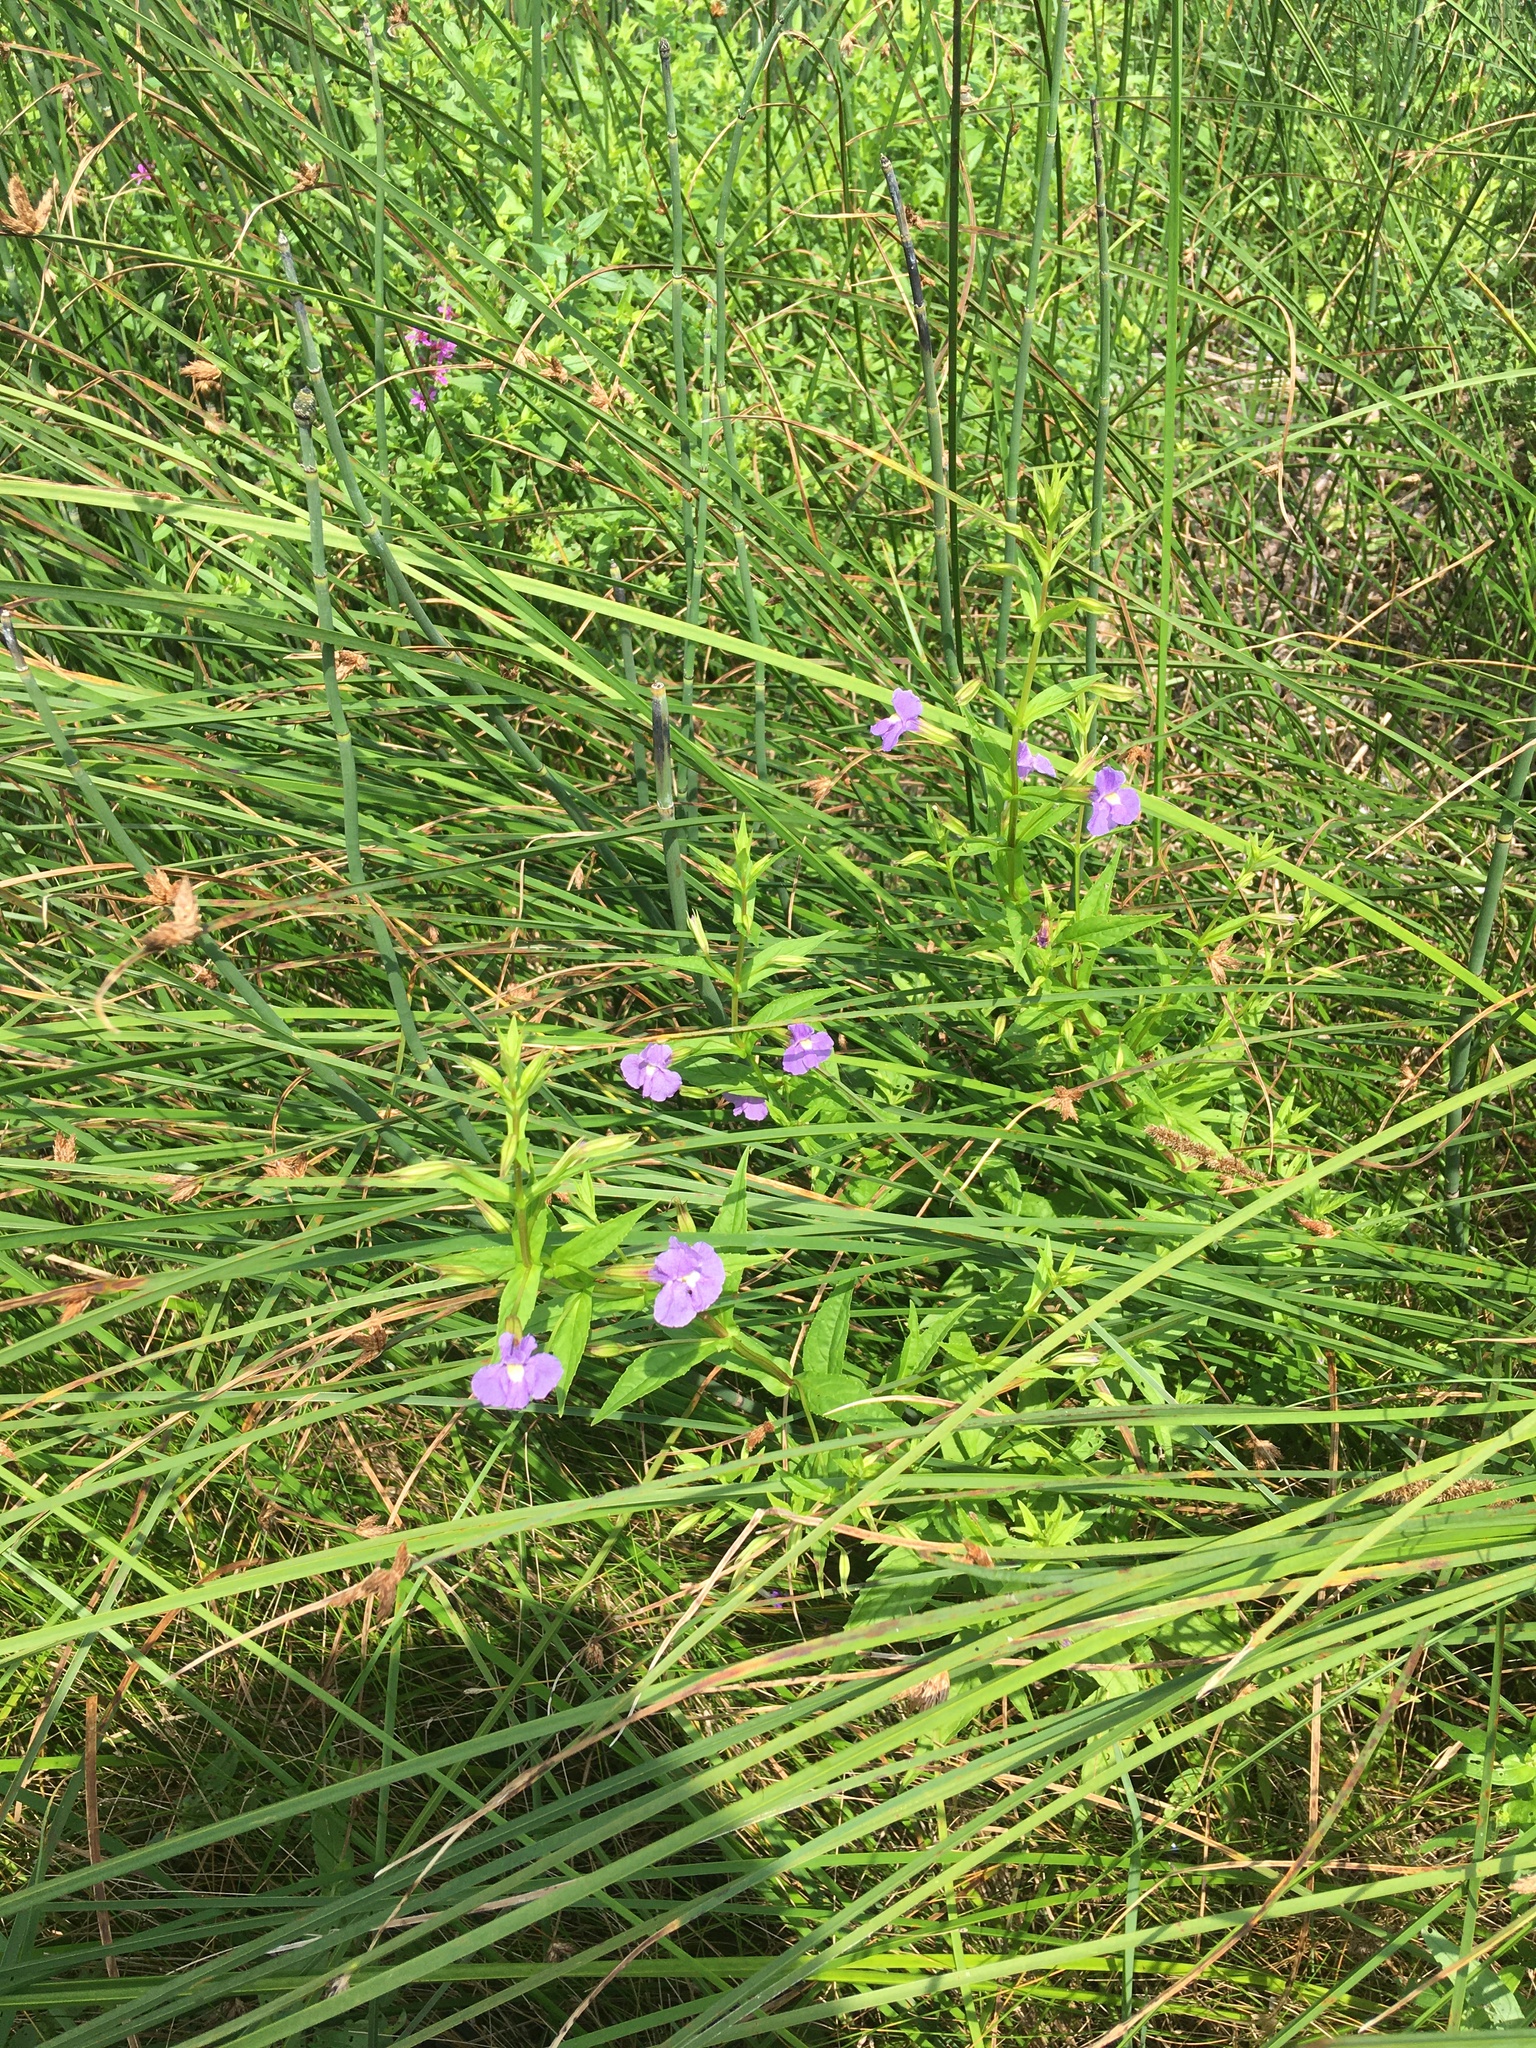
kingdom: Plantae
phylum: Tracheophyta
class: Magnoliopsida
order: Lamiales
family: Phrymaceae
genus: Mimulus
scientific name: Mimulus ringens
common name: Allegheny monkeyflower
